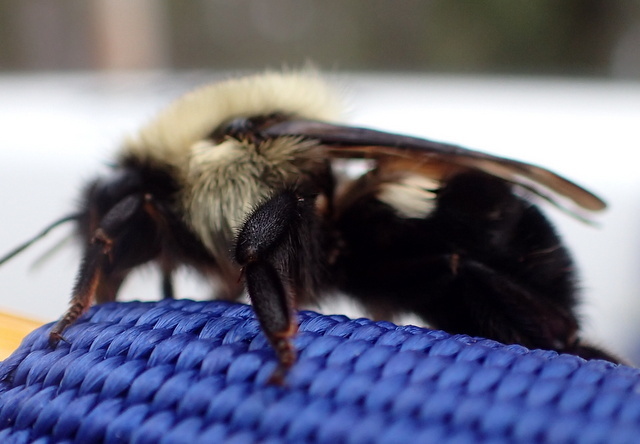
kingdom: Animalia
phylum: Arthropoda
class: Insecta
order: Hymenoptera
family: Apidae
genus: Bombus
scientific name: Bombus bimaculatus
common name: Two-spotted bumble bee
